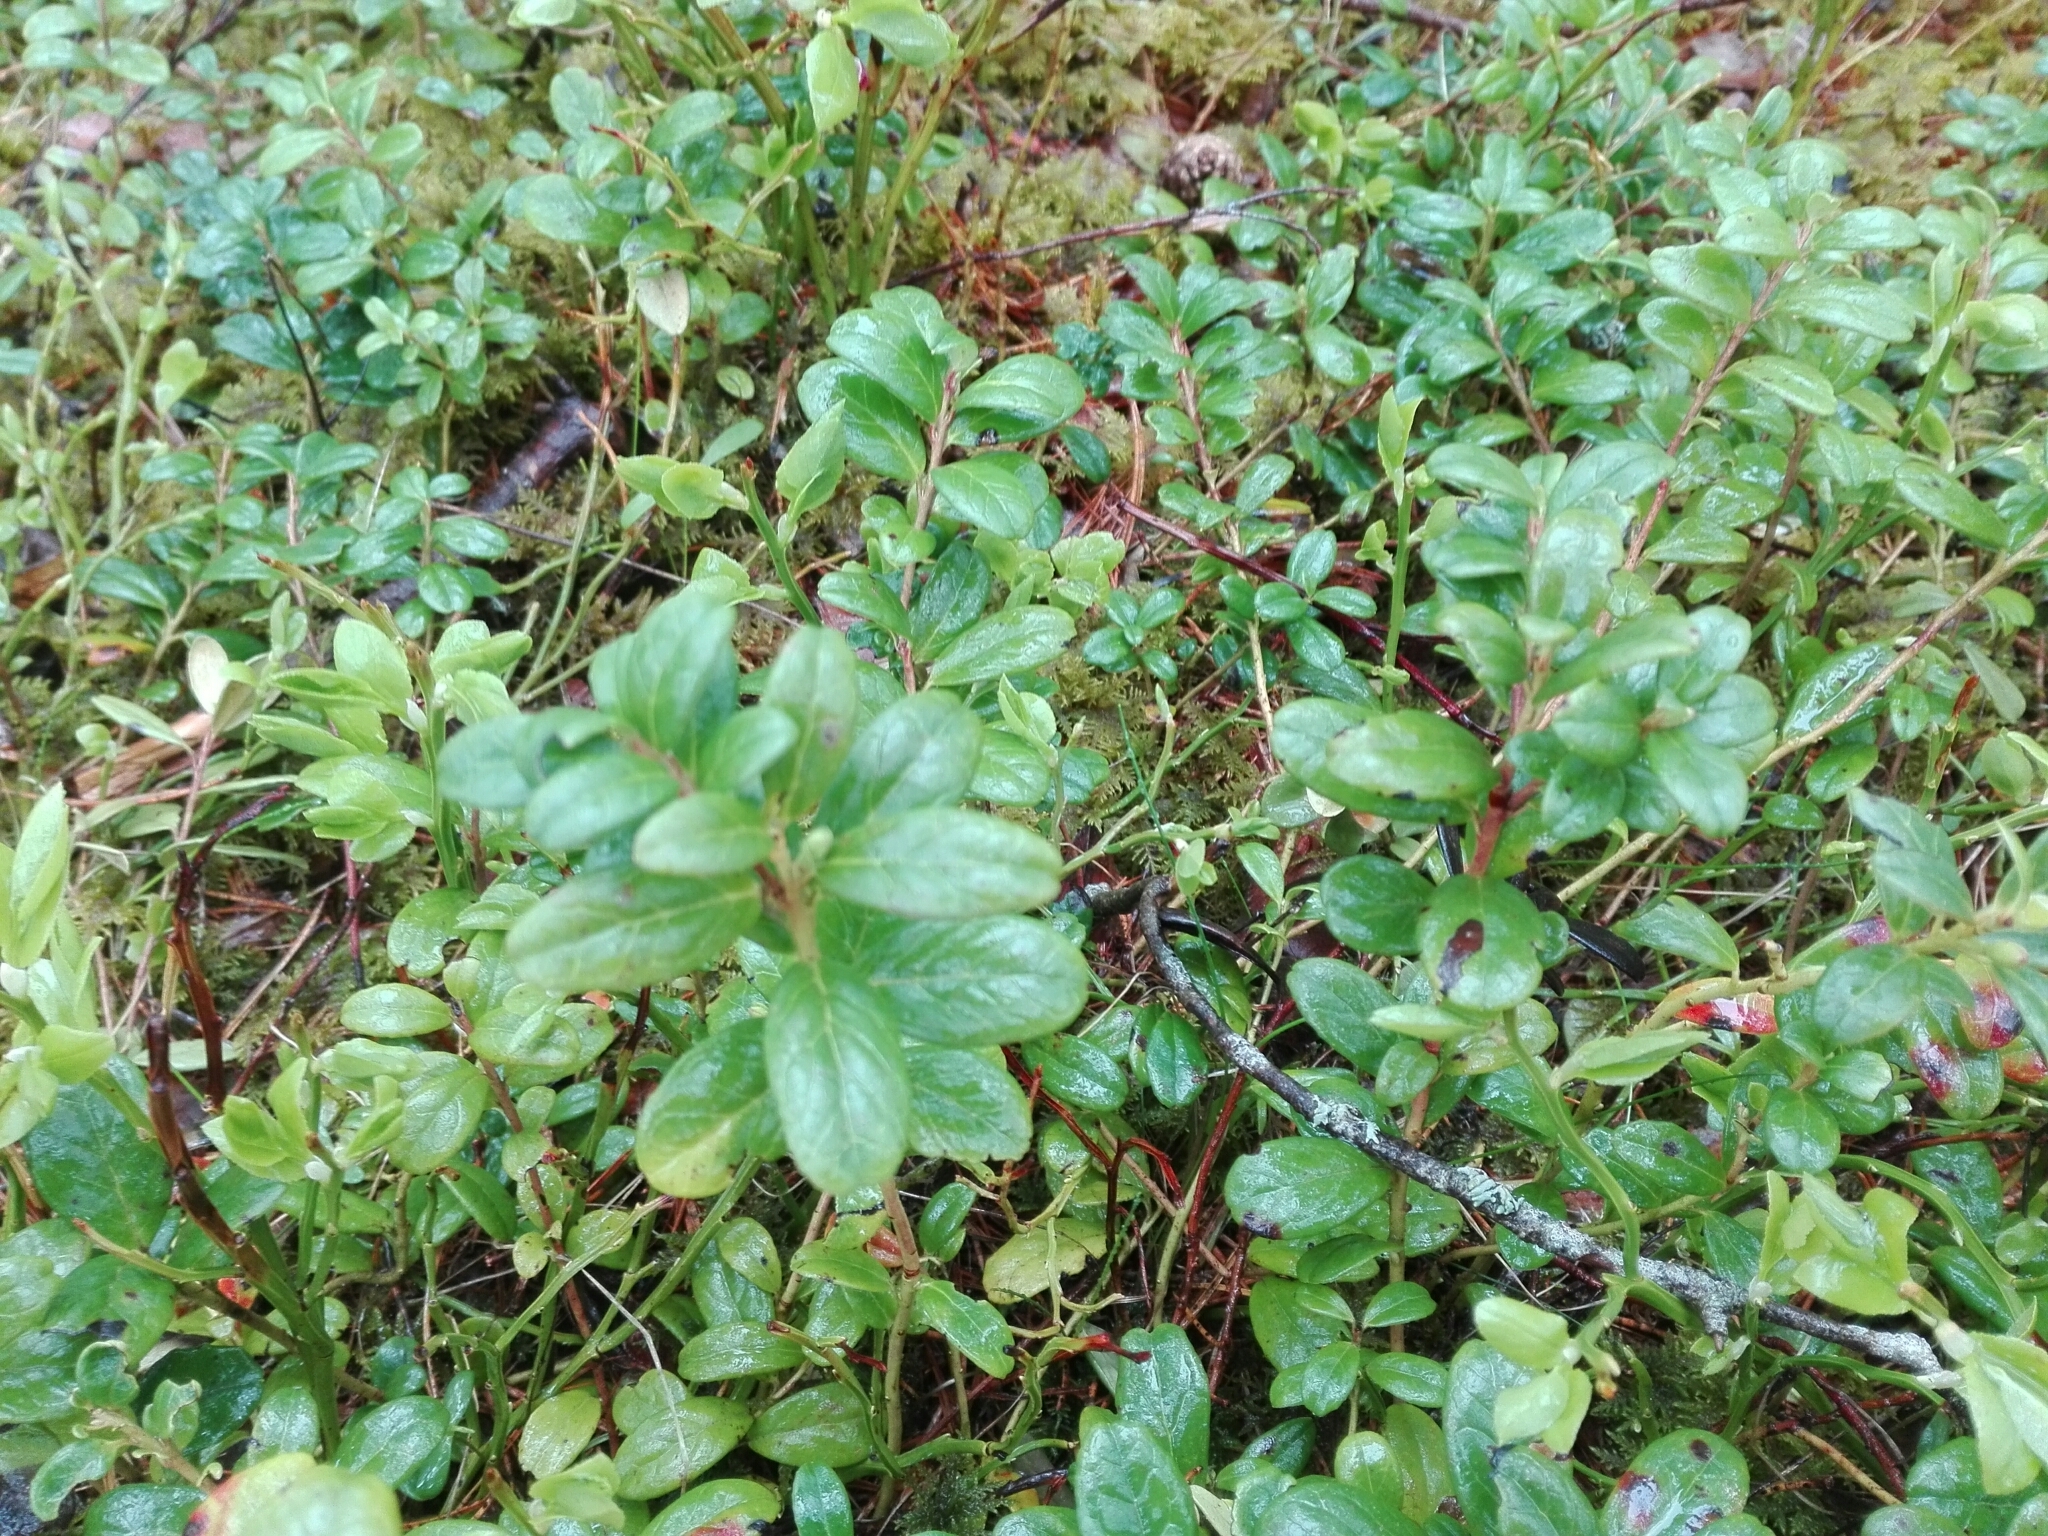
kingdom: Plantae
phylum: Tracheophyta
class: Magnoliopsida
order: Ericales
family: Ericaceae
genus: Vaccinium
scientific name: Vaccinium vitis-idaea
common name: Cowberry
